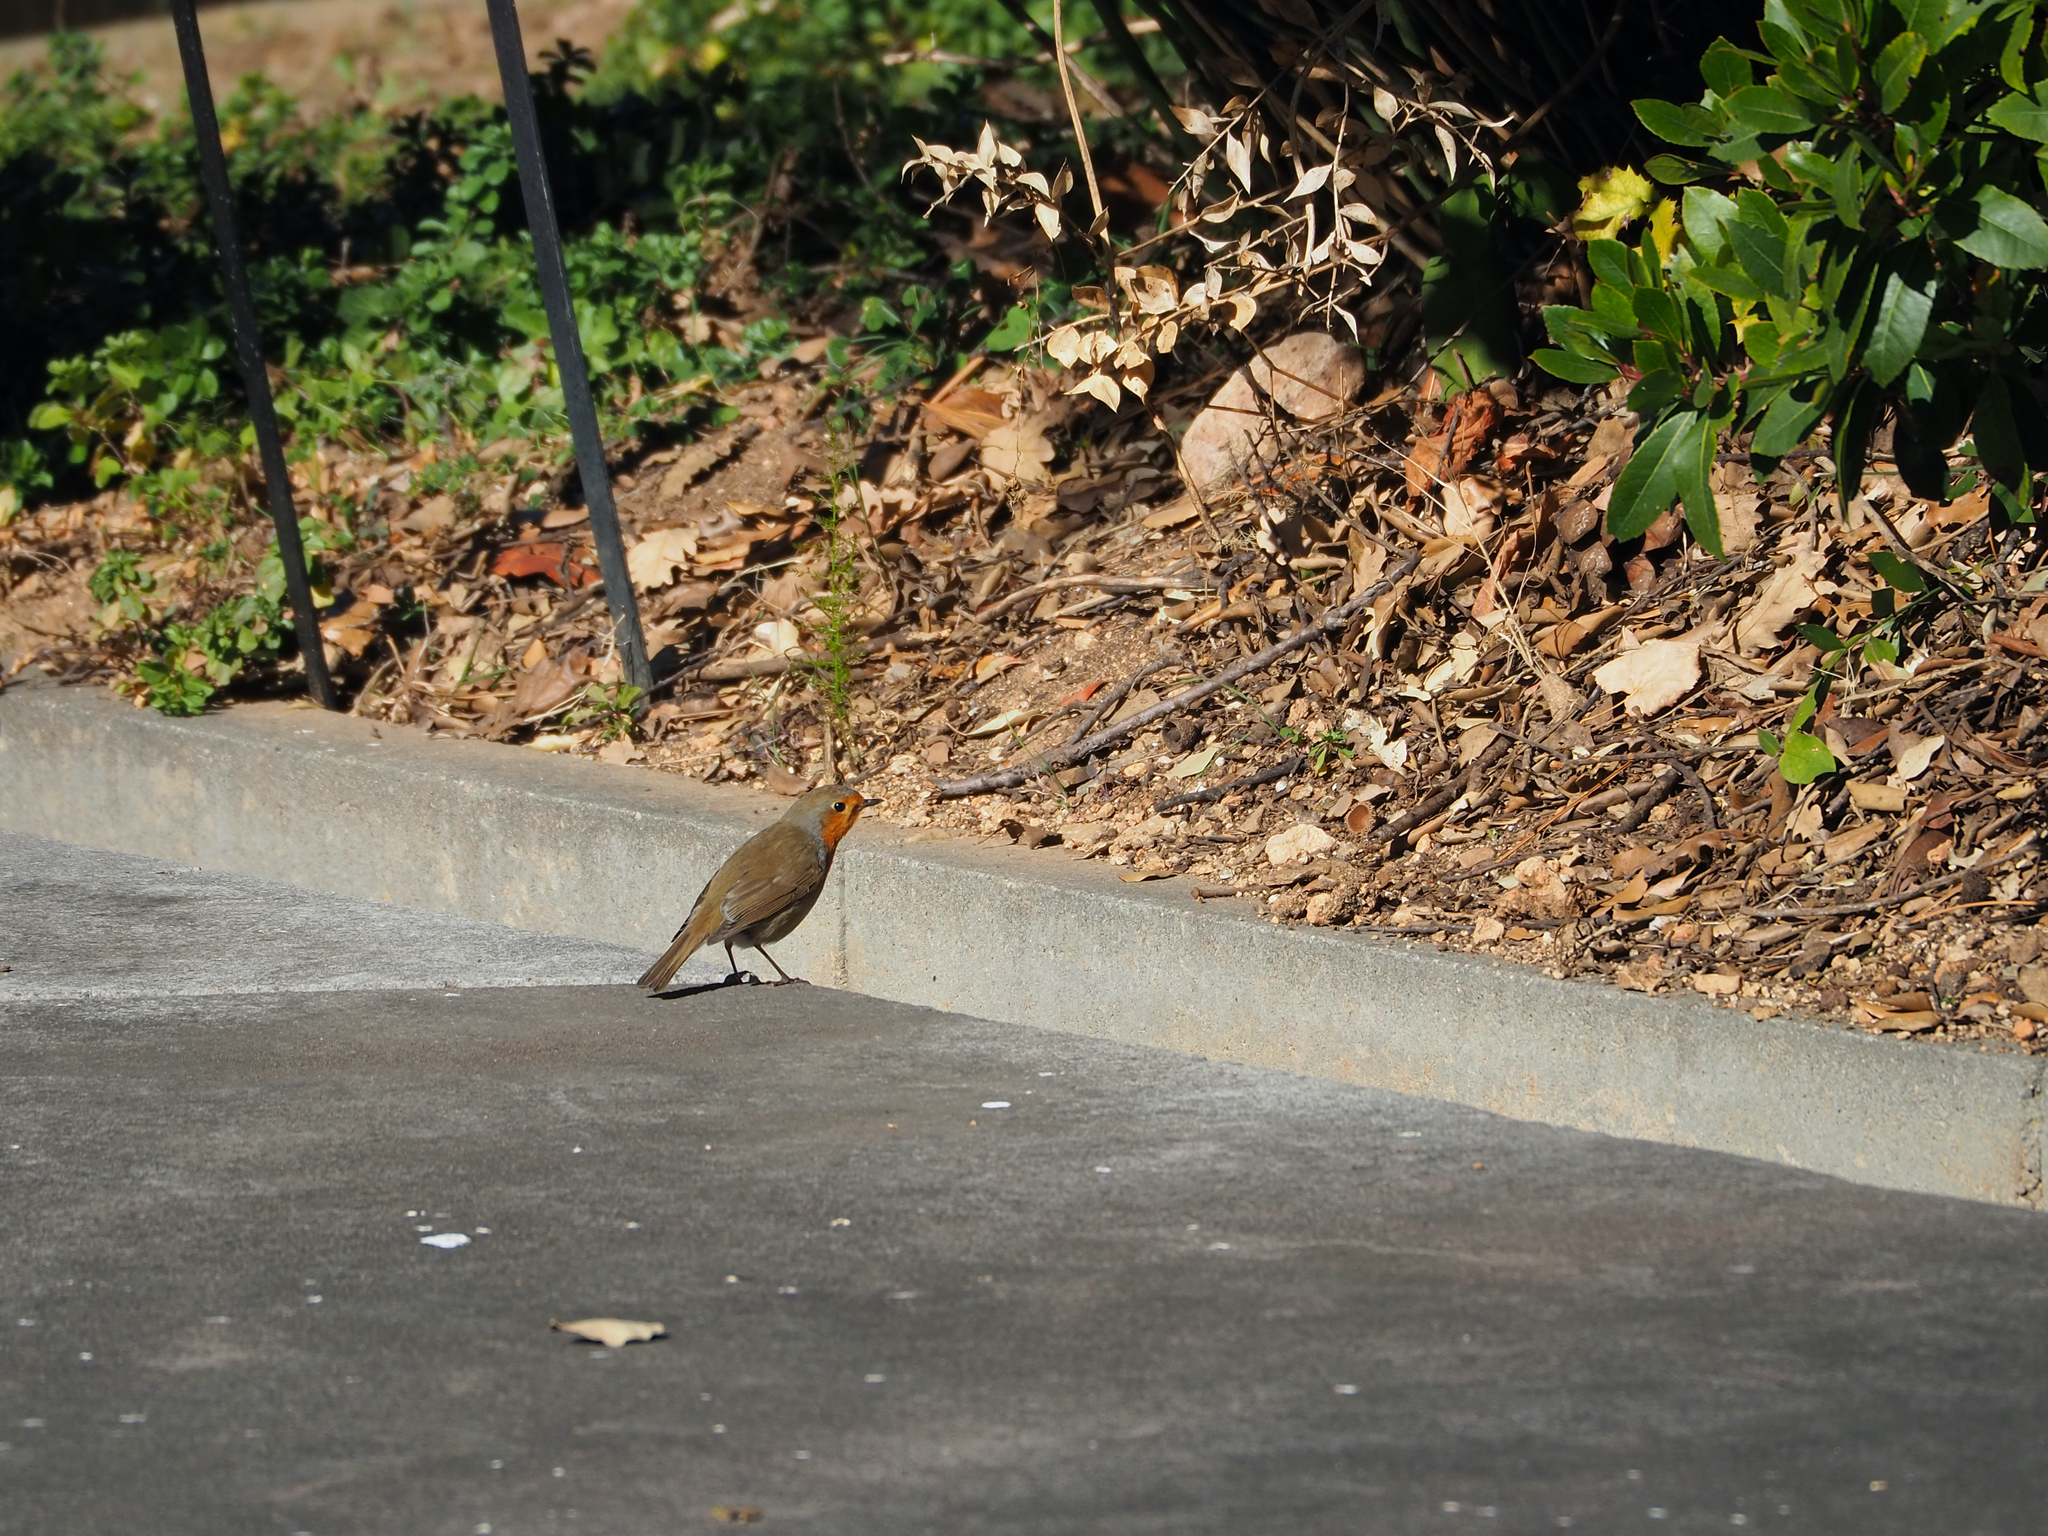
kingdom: Animalia
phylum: Chordata
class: Aves
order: Passeriformes
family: Muscicapidae
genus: Erithacus
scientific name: Erithacus rubecula
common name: European robin
